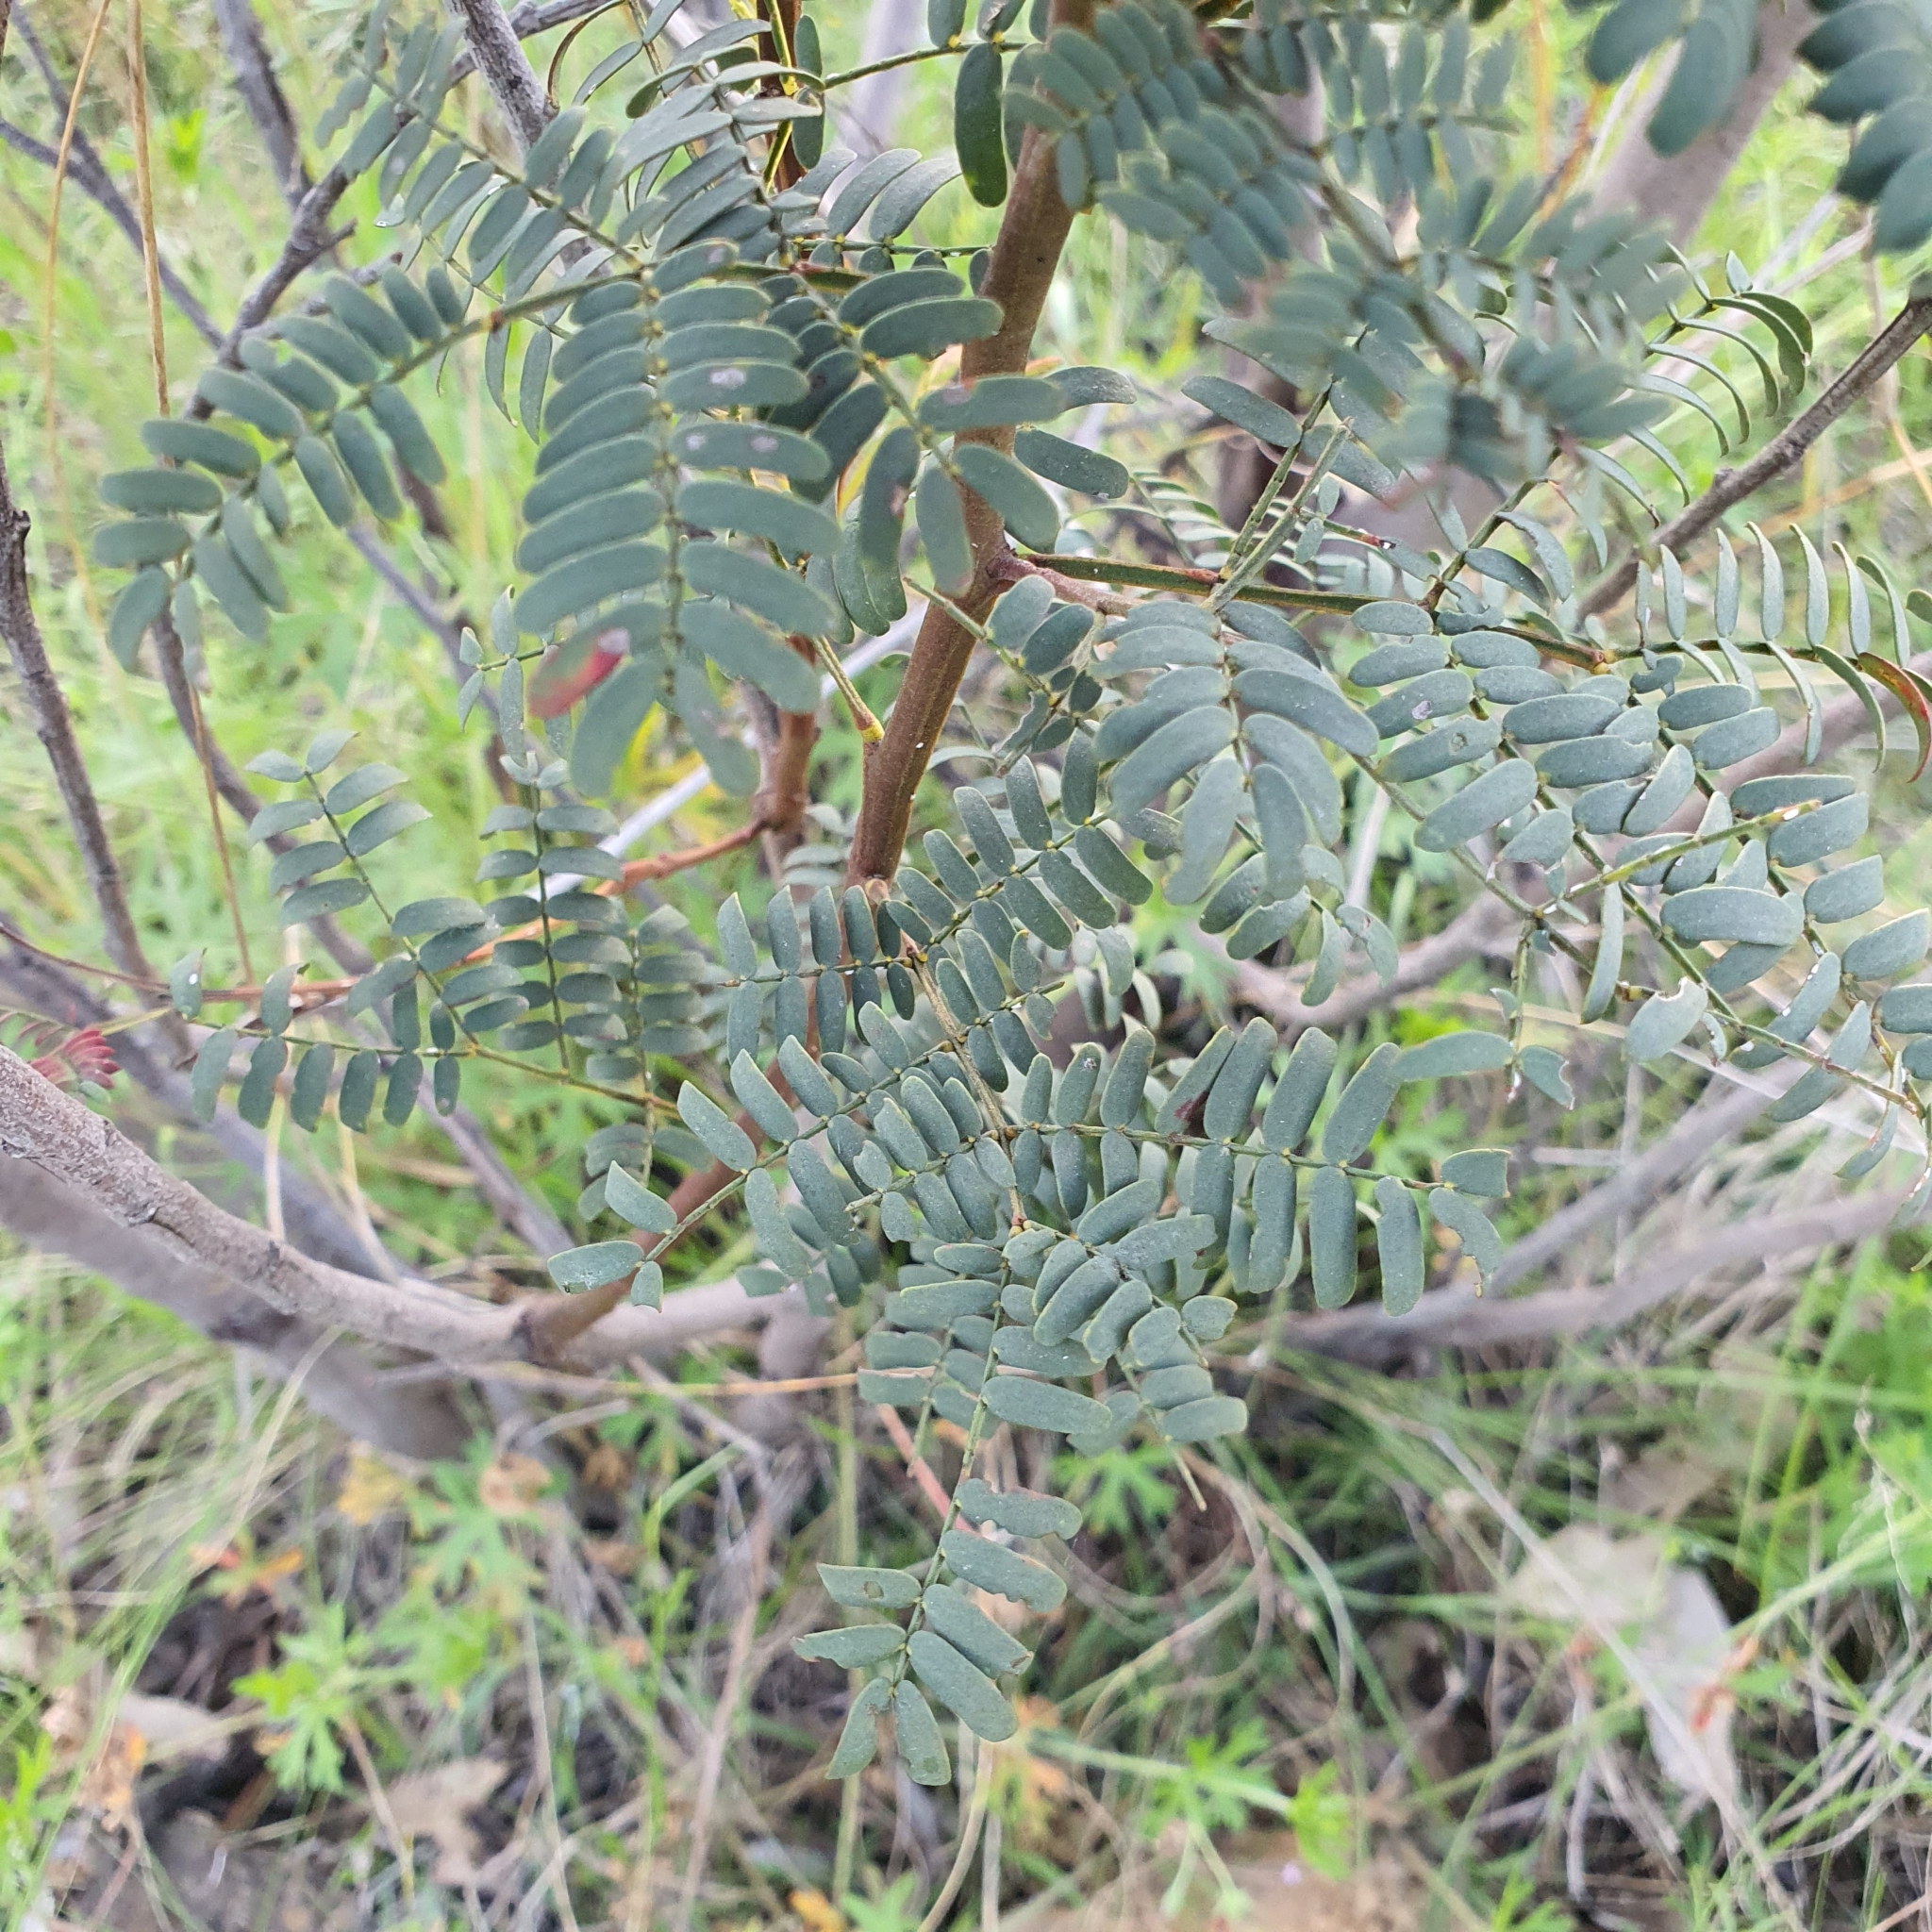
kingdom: Plantae
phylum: Tracheophyta
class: Magnoliopsida
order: Fabales
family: Fabaceae
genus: Acacia
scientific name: Acacia rubida
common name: Red leaf wattle
